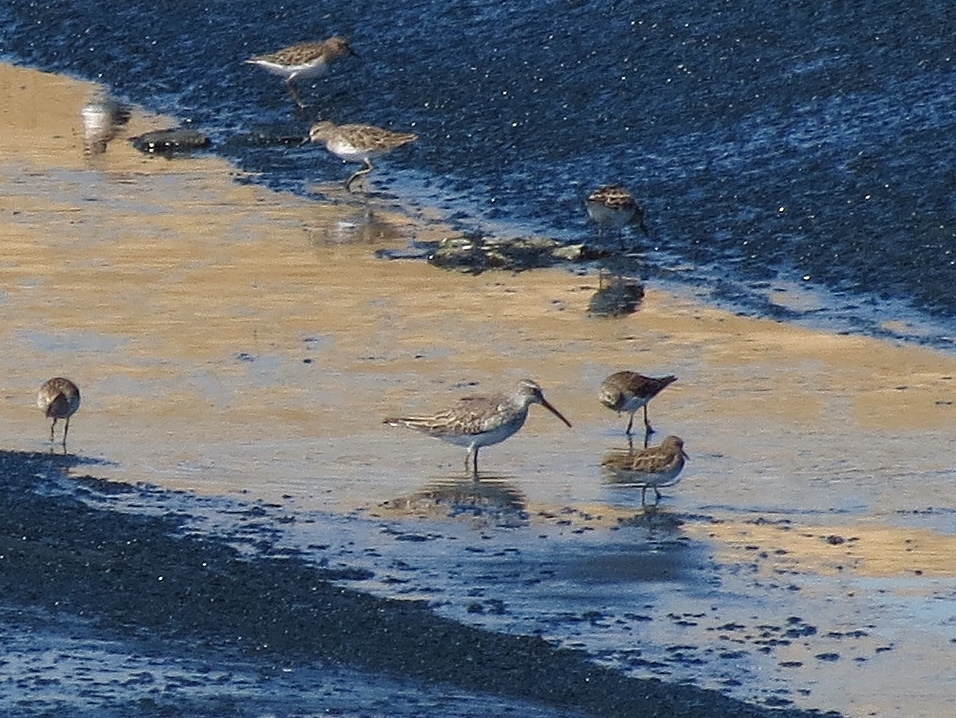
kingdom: Animalia
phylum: Chordata
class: Aves
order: Charadriiformes
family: Scolopacidae
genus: Calidris
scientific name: Calidris himantopus
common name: Stilt sandpiper
